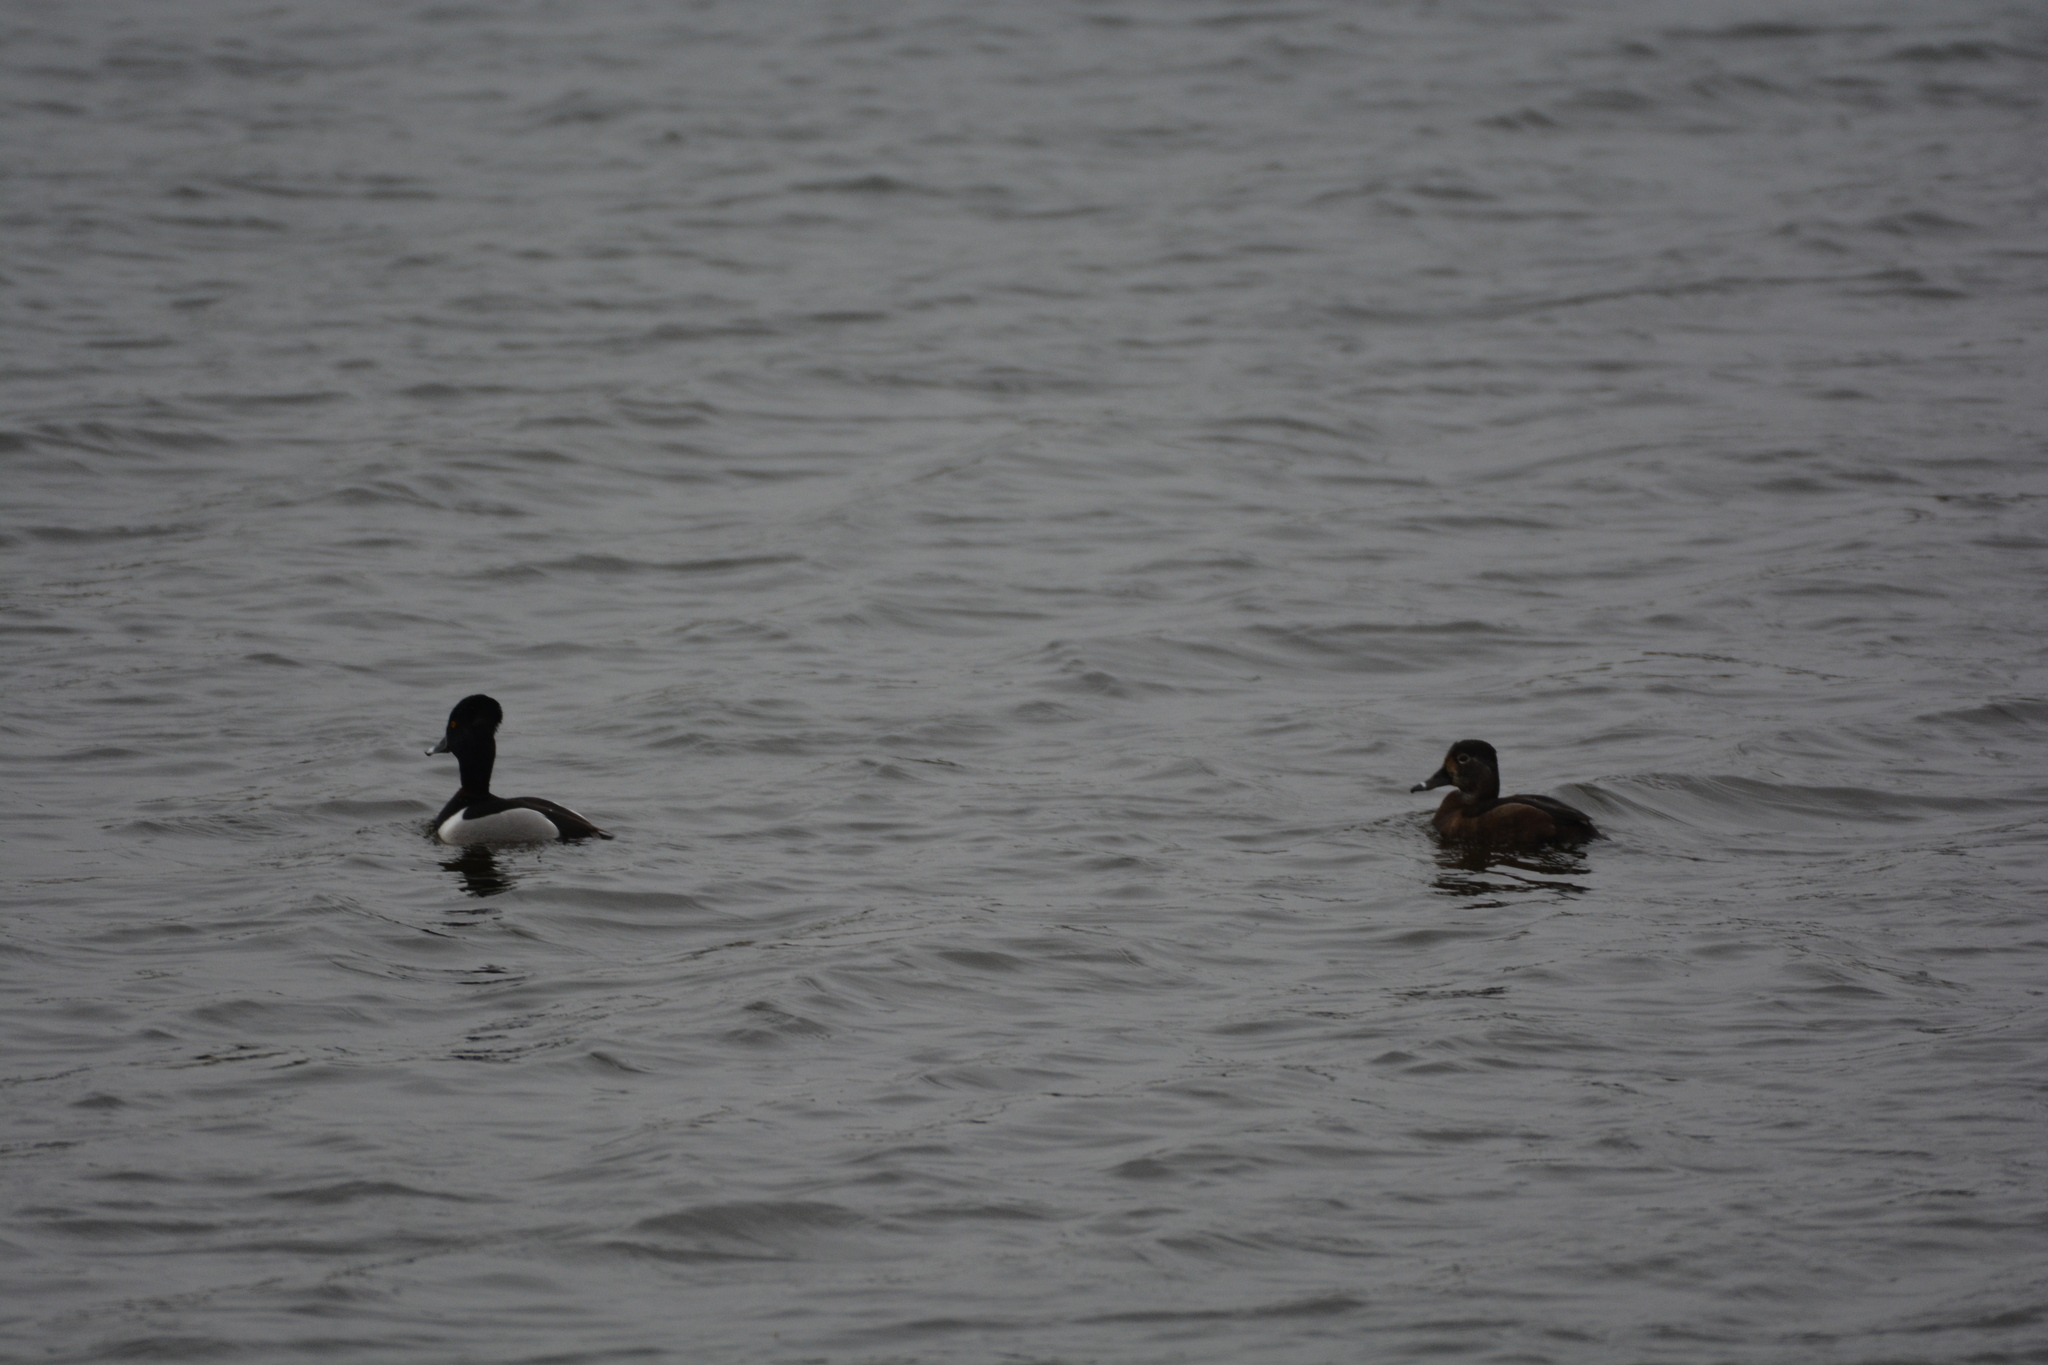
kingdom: Animalia
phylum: Chordata
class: Aves
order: Anseriformes
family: Anatidae
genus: Aythya
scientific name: Aythya collaris
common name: Ring-necked duck
